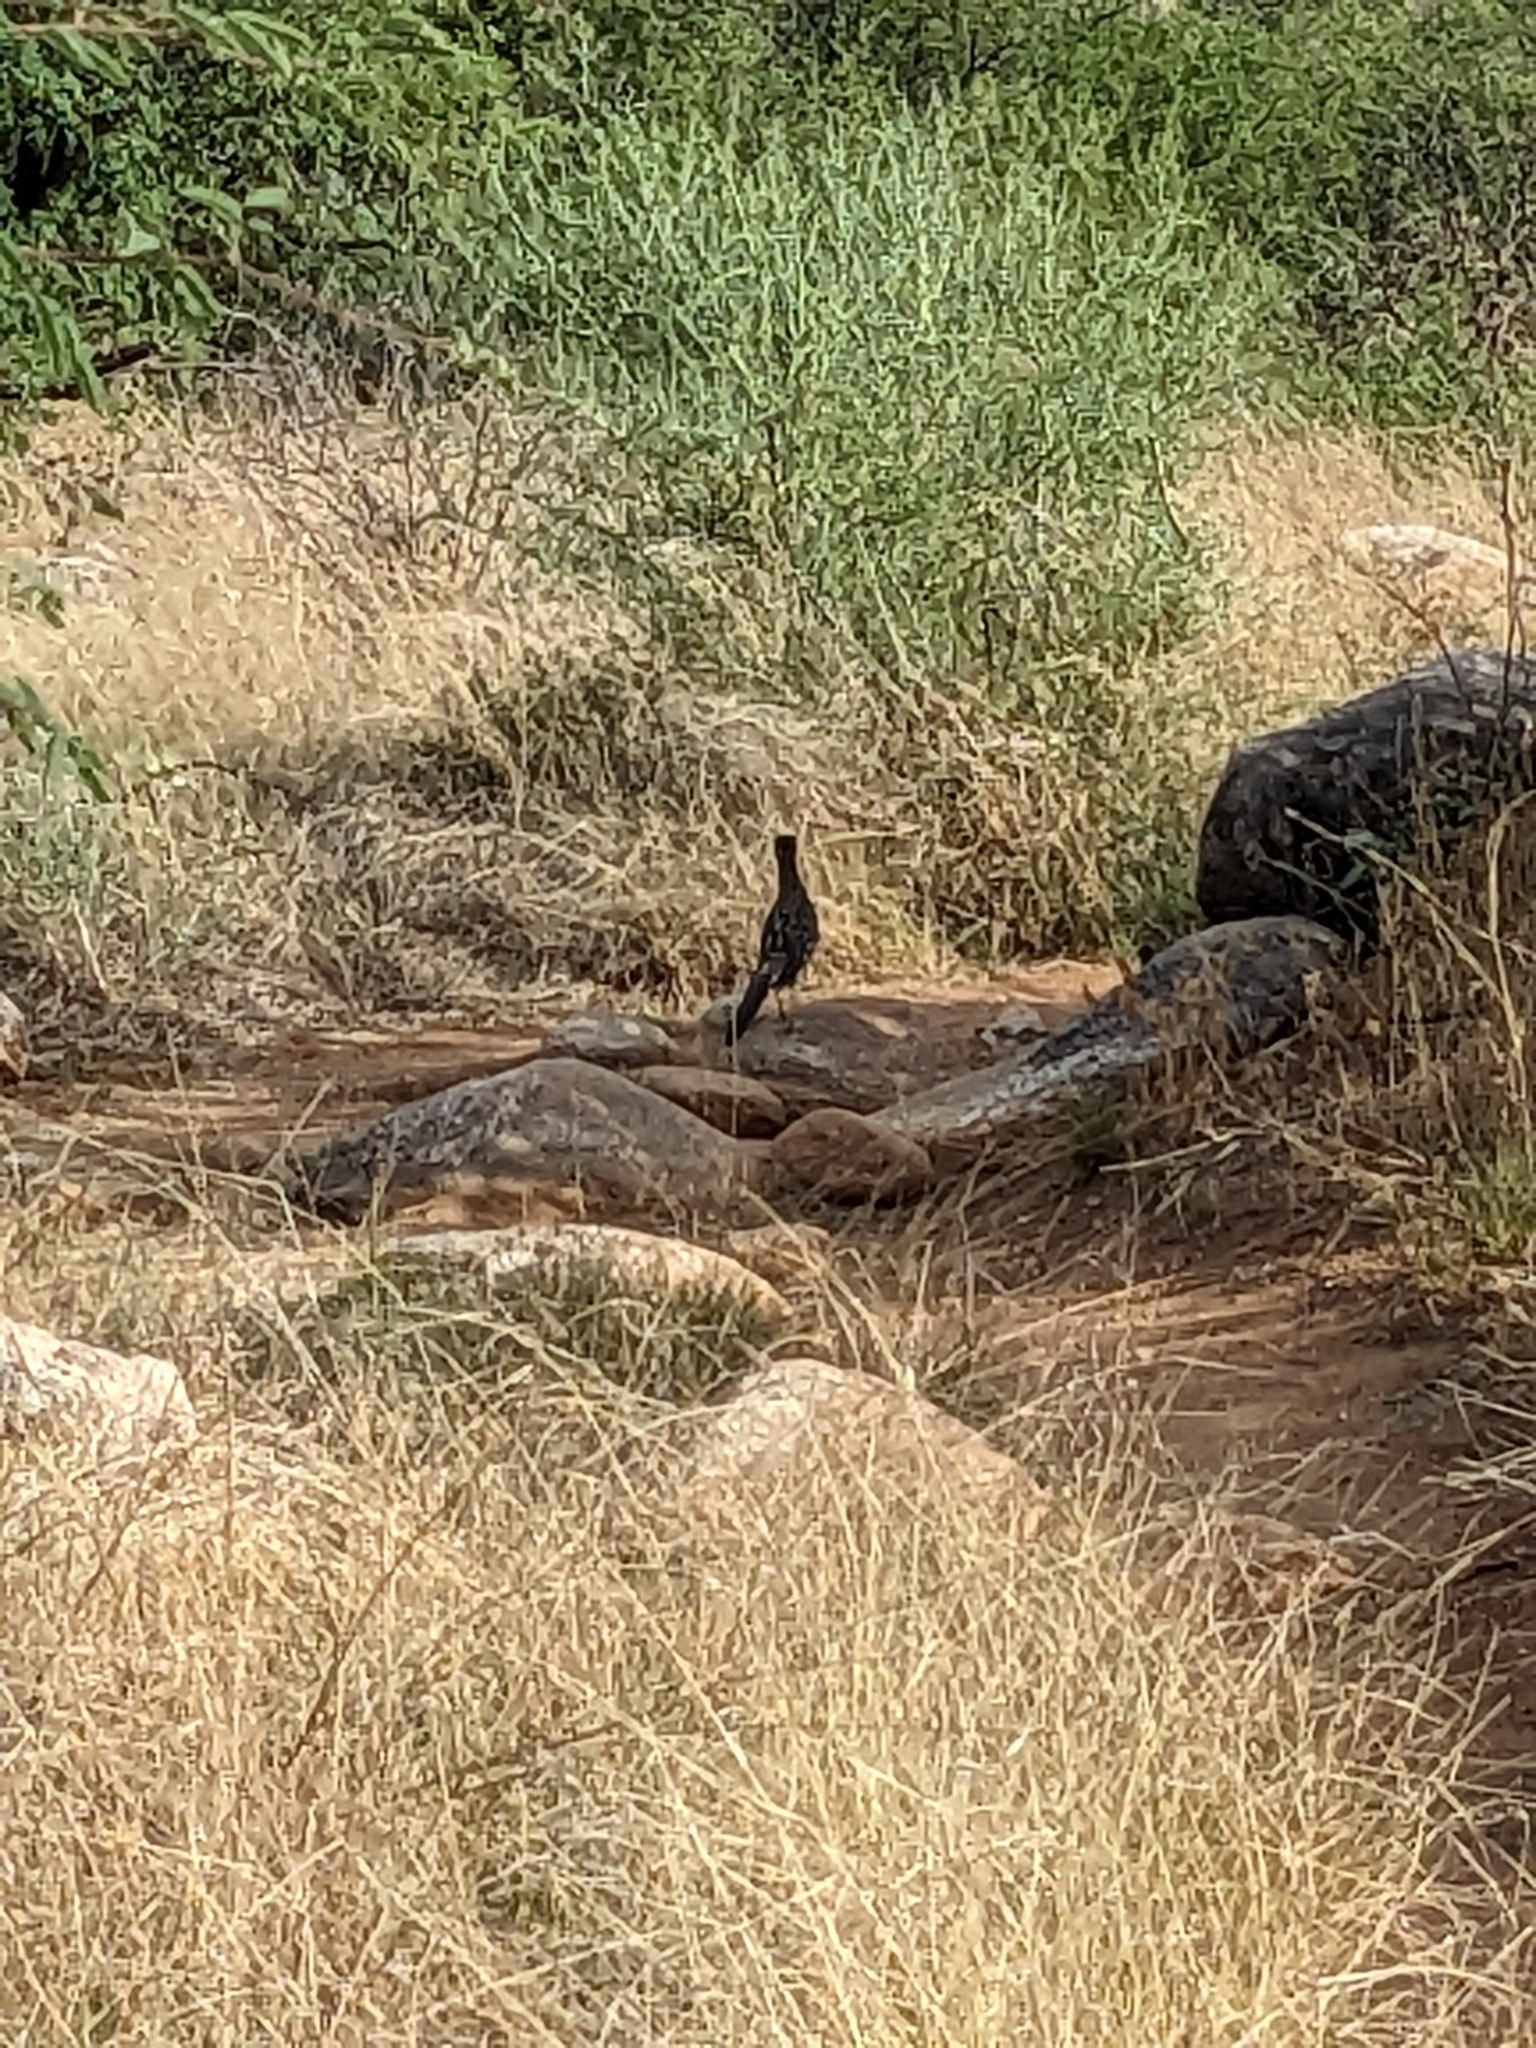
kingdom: Animalia
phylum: Chordata
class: Aves
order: Cuculiformes
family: Cuculidae
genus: Geococcyx
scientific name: Geococcyx californianus
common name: Greater roadrunner
